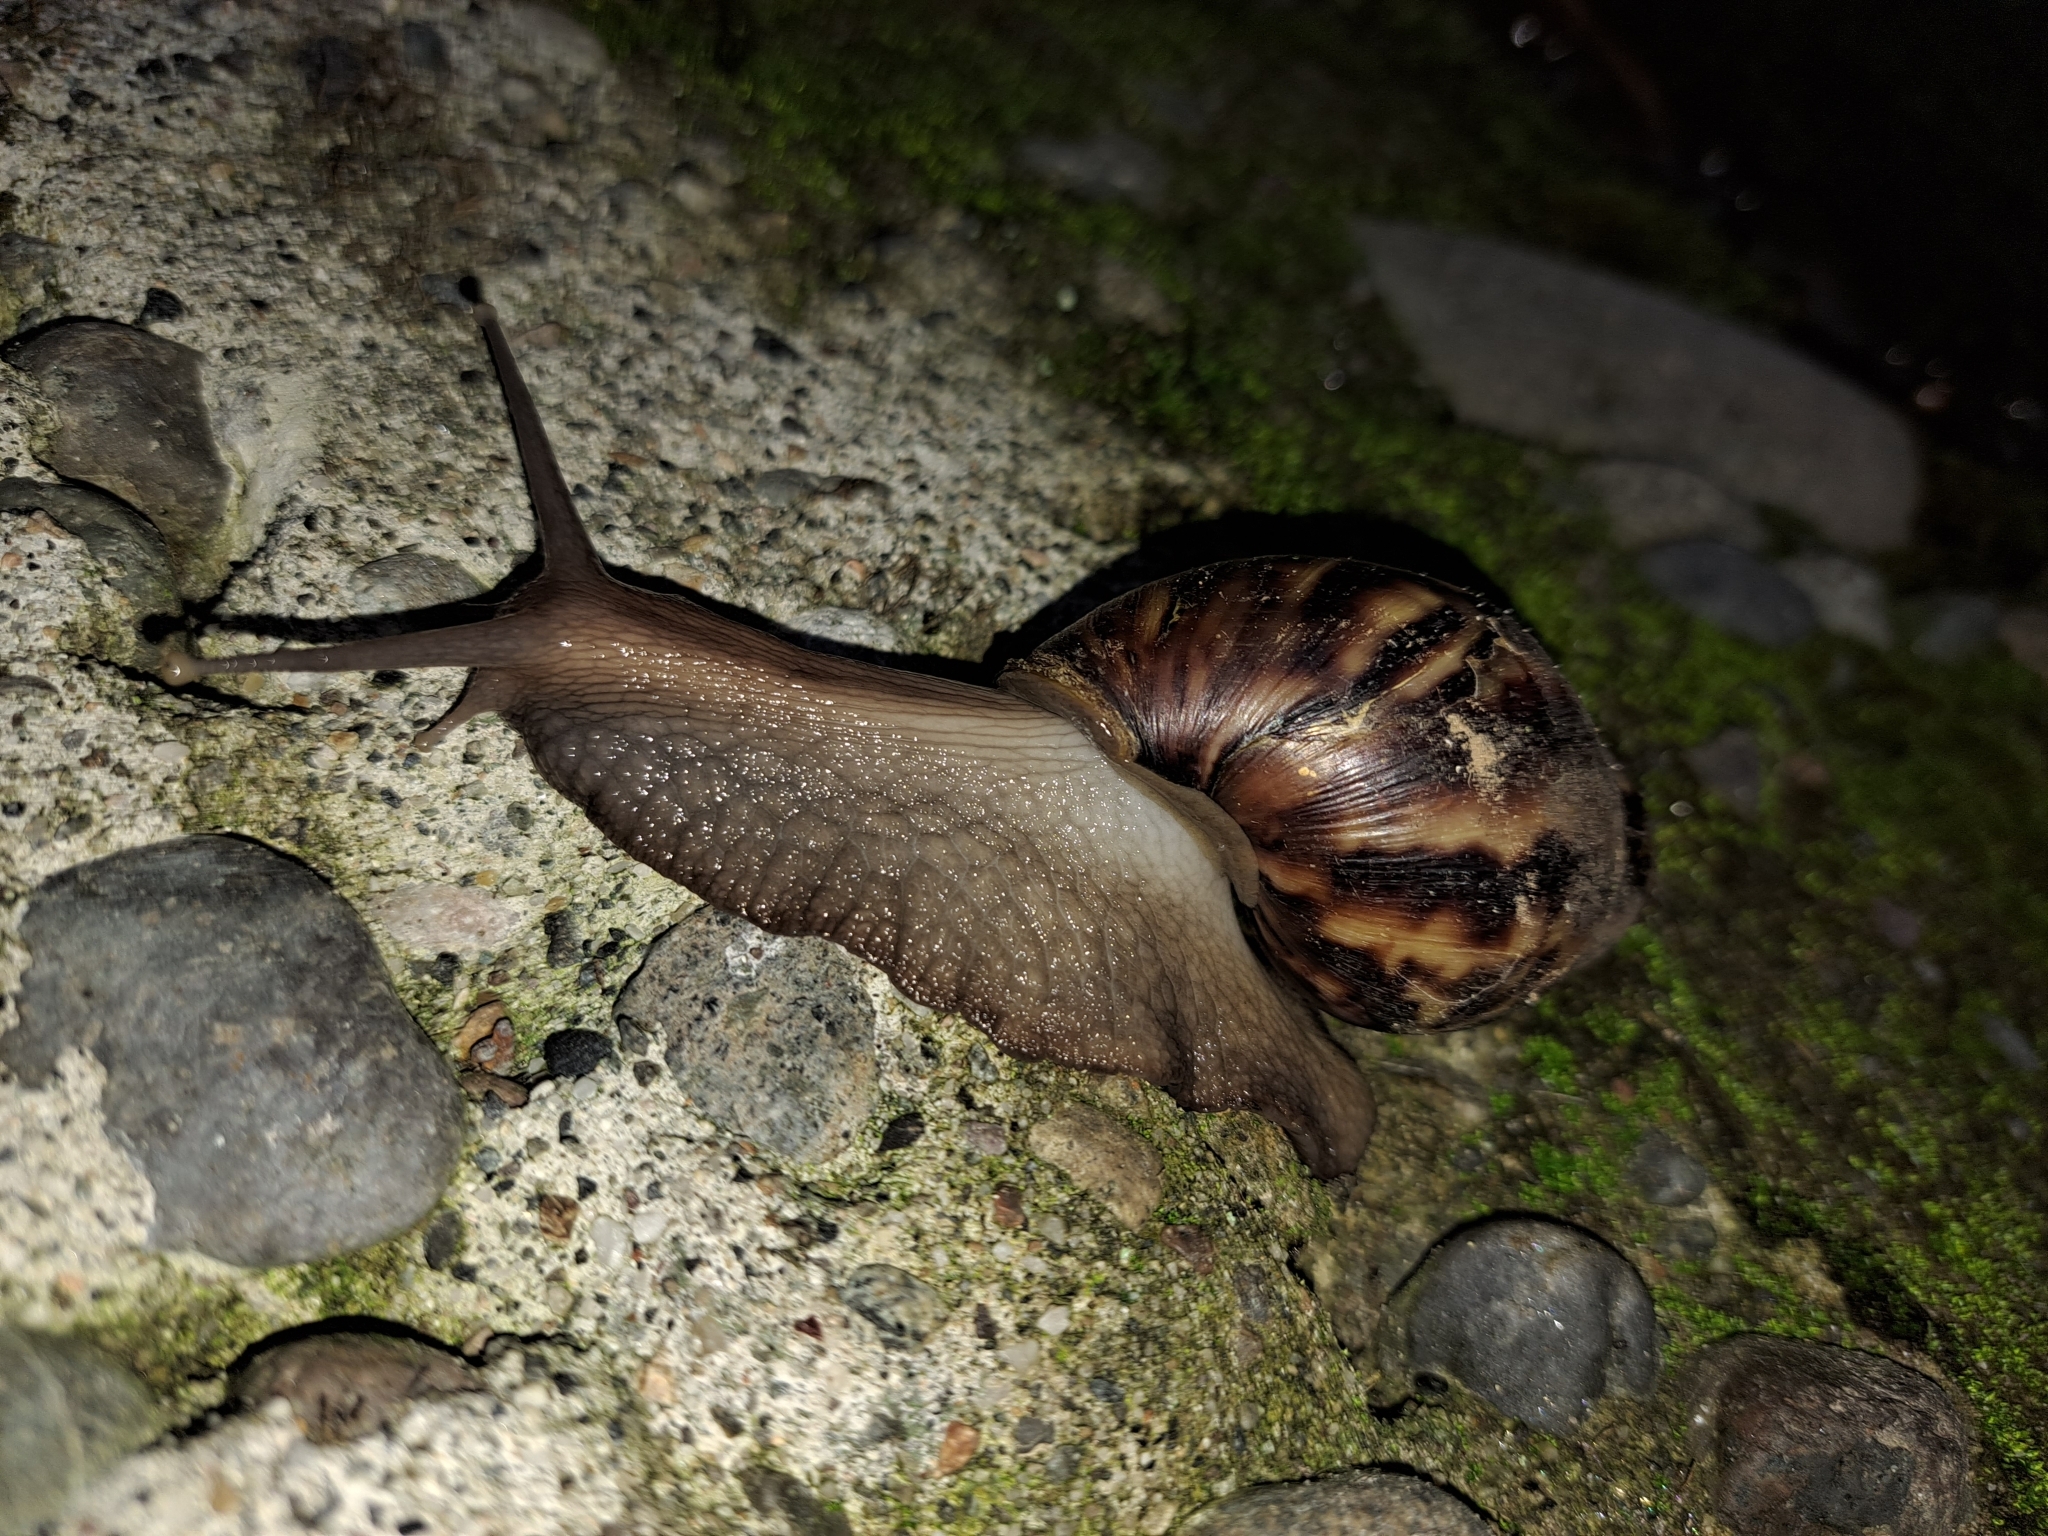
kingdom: Animalia
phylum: Mollusca
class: Gastropoda
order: Stylommatophora
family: Achatinidae
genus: Lissachatina
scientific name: Lissachatina fulica
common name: Giant african snail
